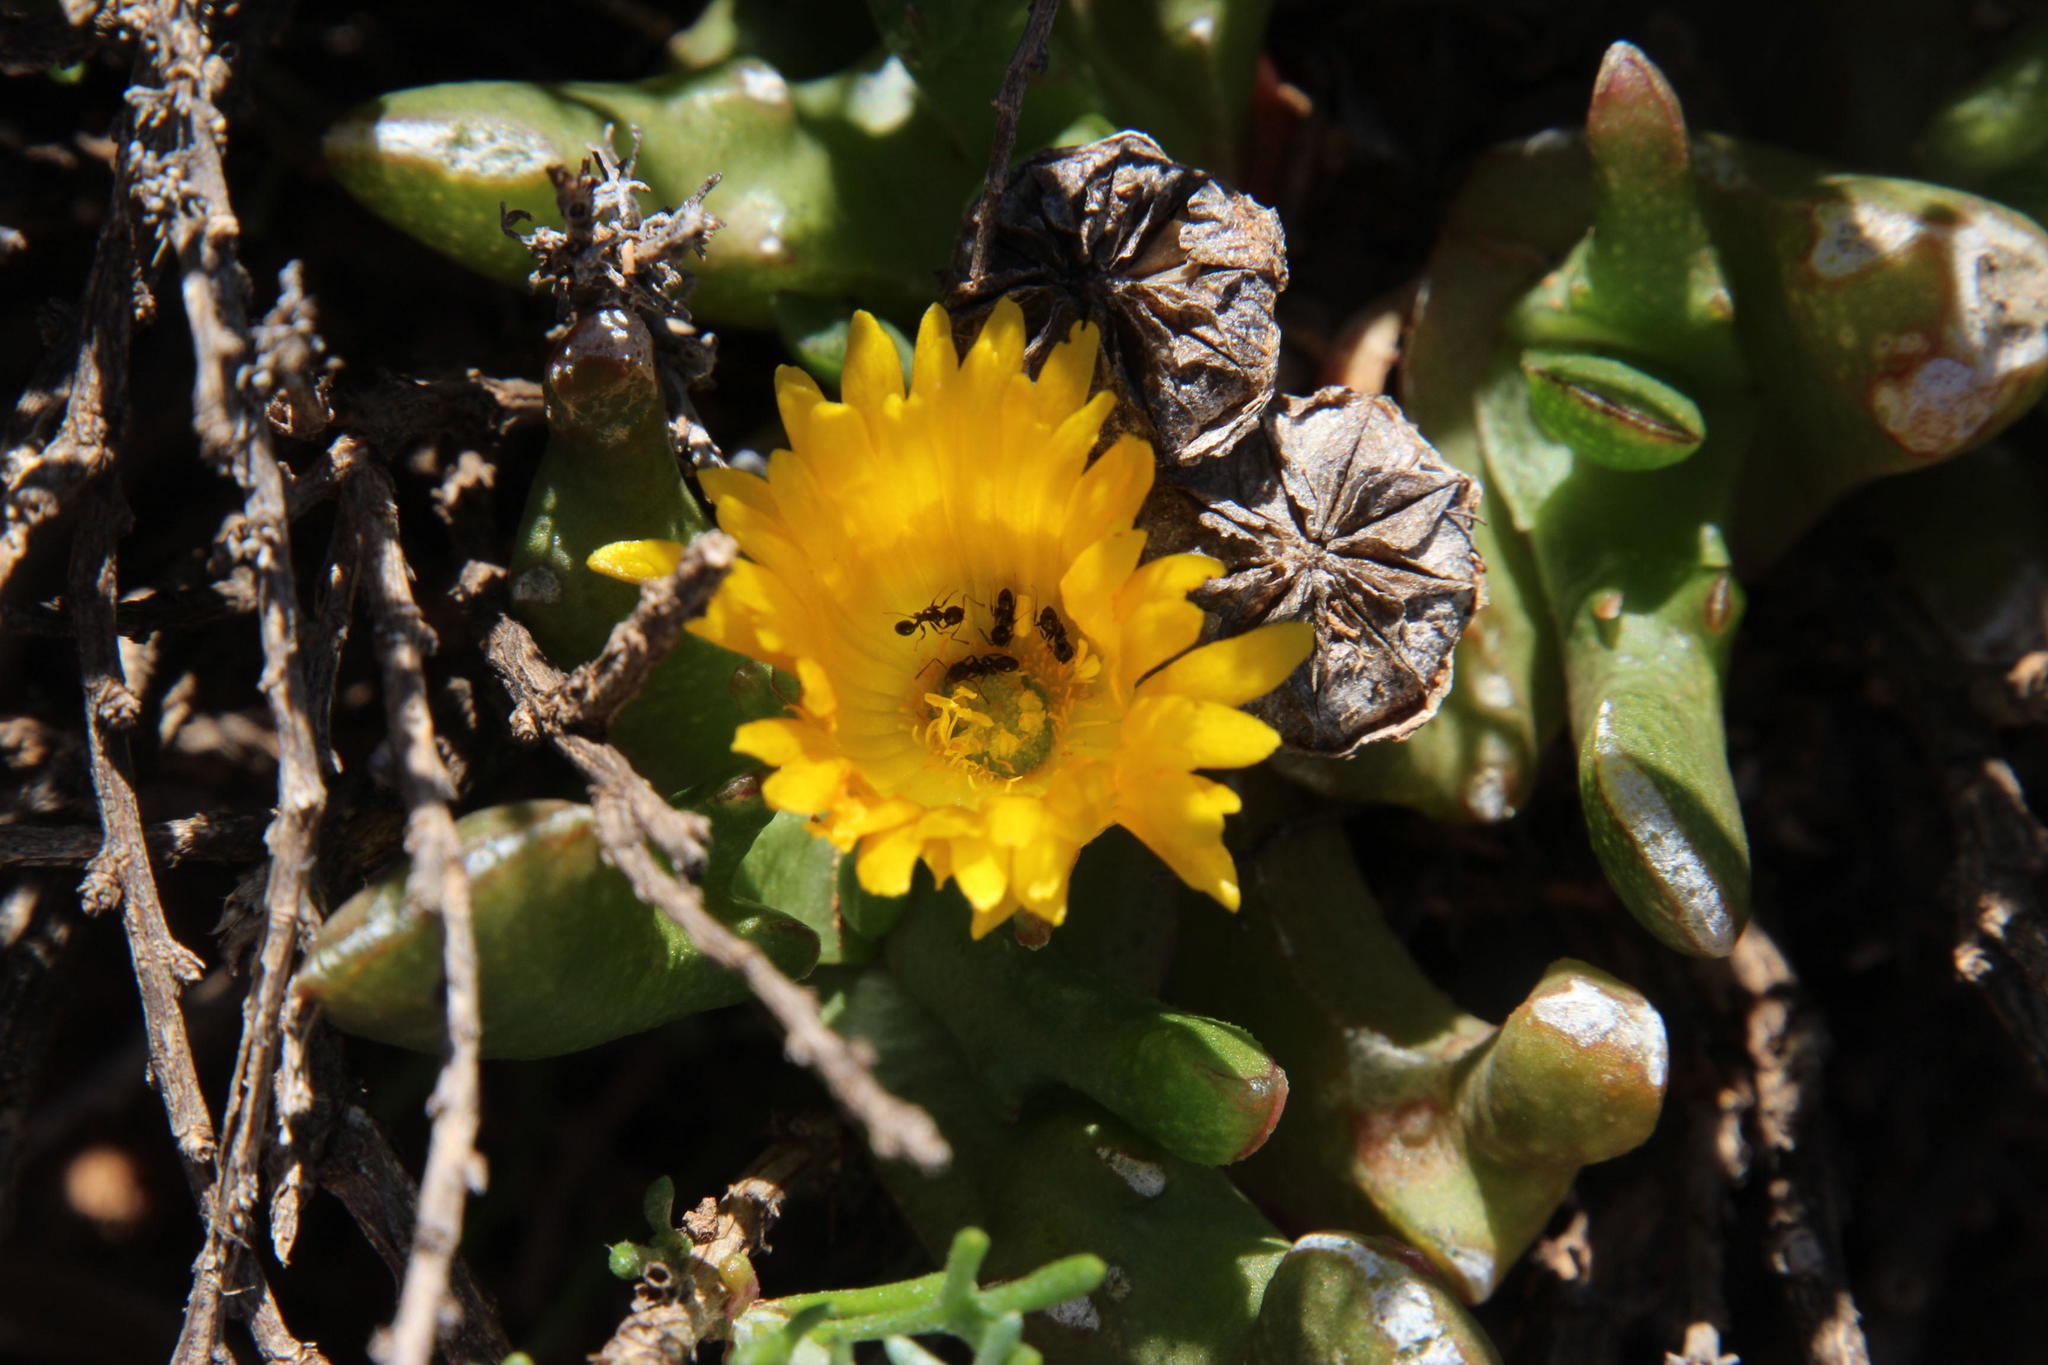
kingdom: Plantae
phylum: Tracheophyta
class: Magnoliopsida
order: Caryophyllales
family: Aizoaceae
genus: Glottiphyllum
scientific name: Glottiphyllum difforme
